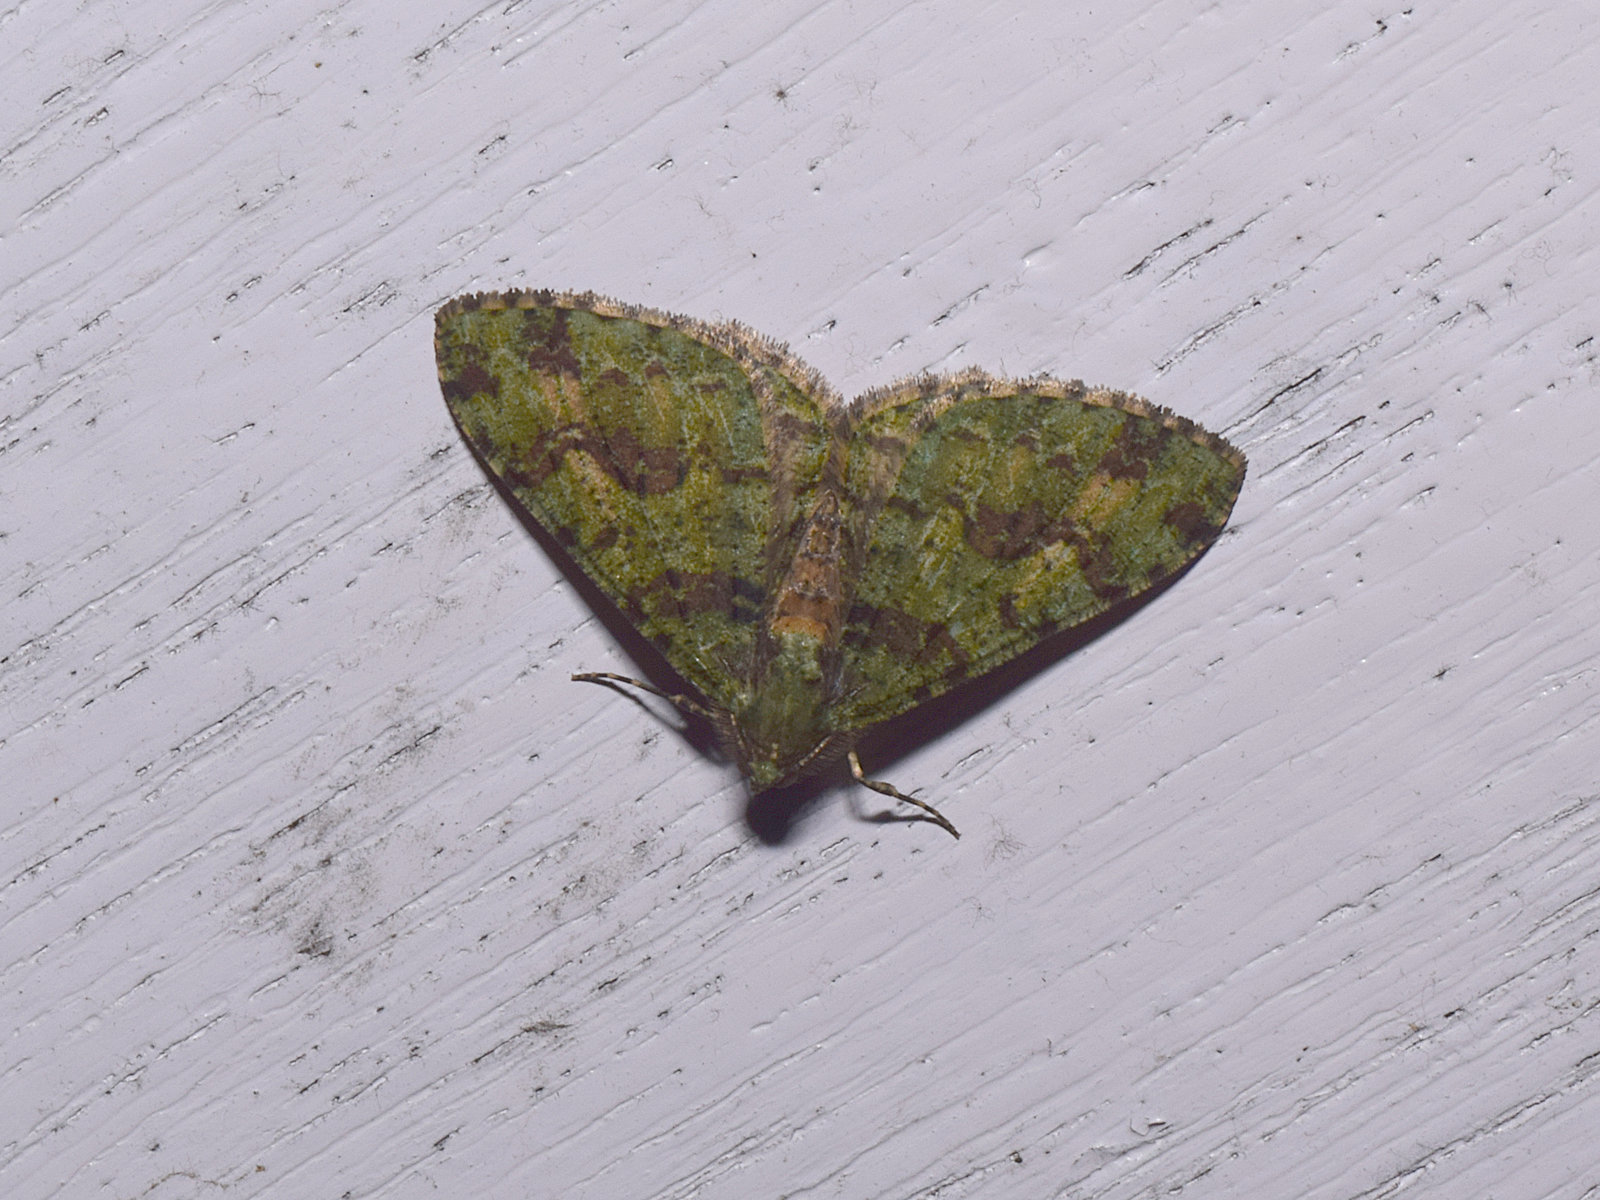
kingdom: Animalia
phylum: Arthropoda
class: Insecta
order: Lepidoptera
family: Geometridae
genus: Myrioblephara
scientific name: Myrioblephara duplexa
